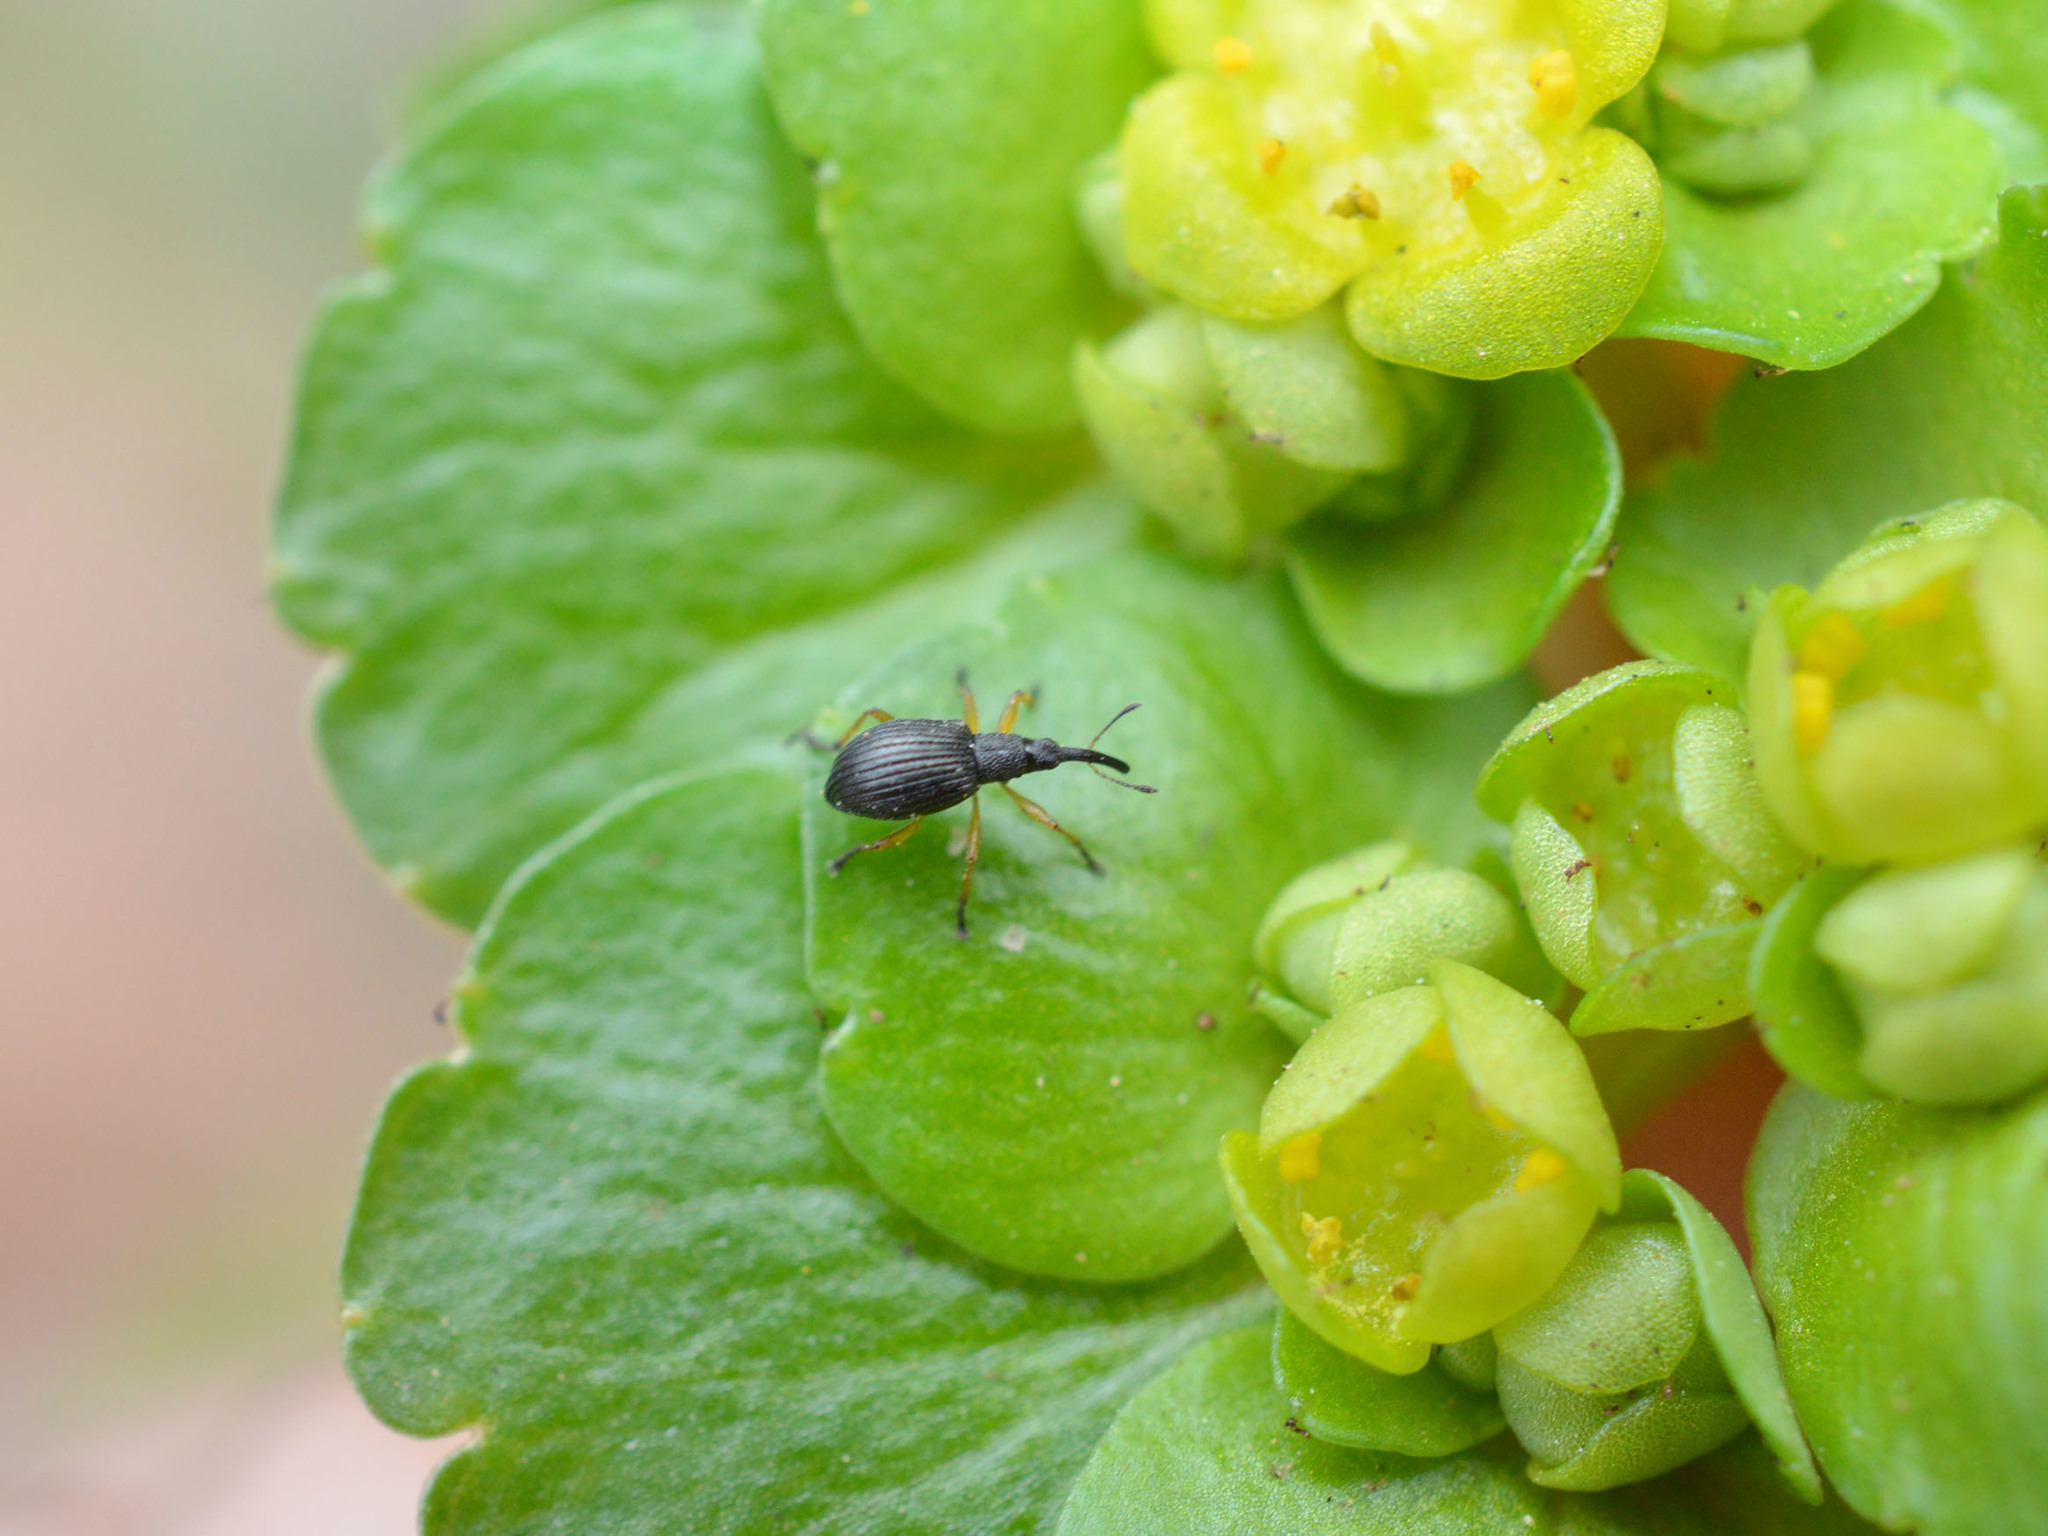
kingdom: Animalia
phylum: Arthropoda
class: Insecta
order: Coleoptera
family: Apionidae
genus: Protapion
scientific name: Protapion fulvipes
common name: White clover seed weevil
